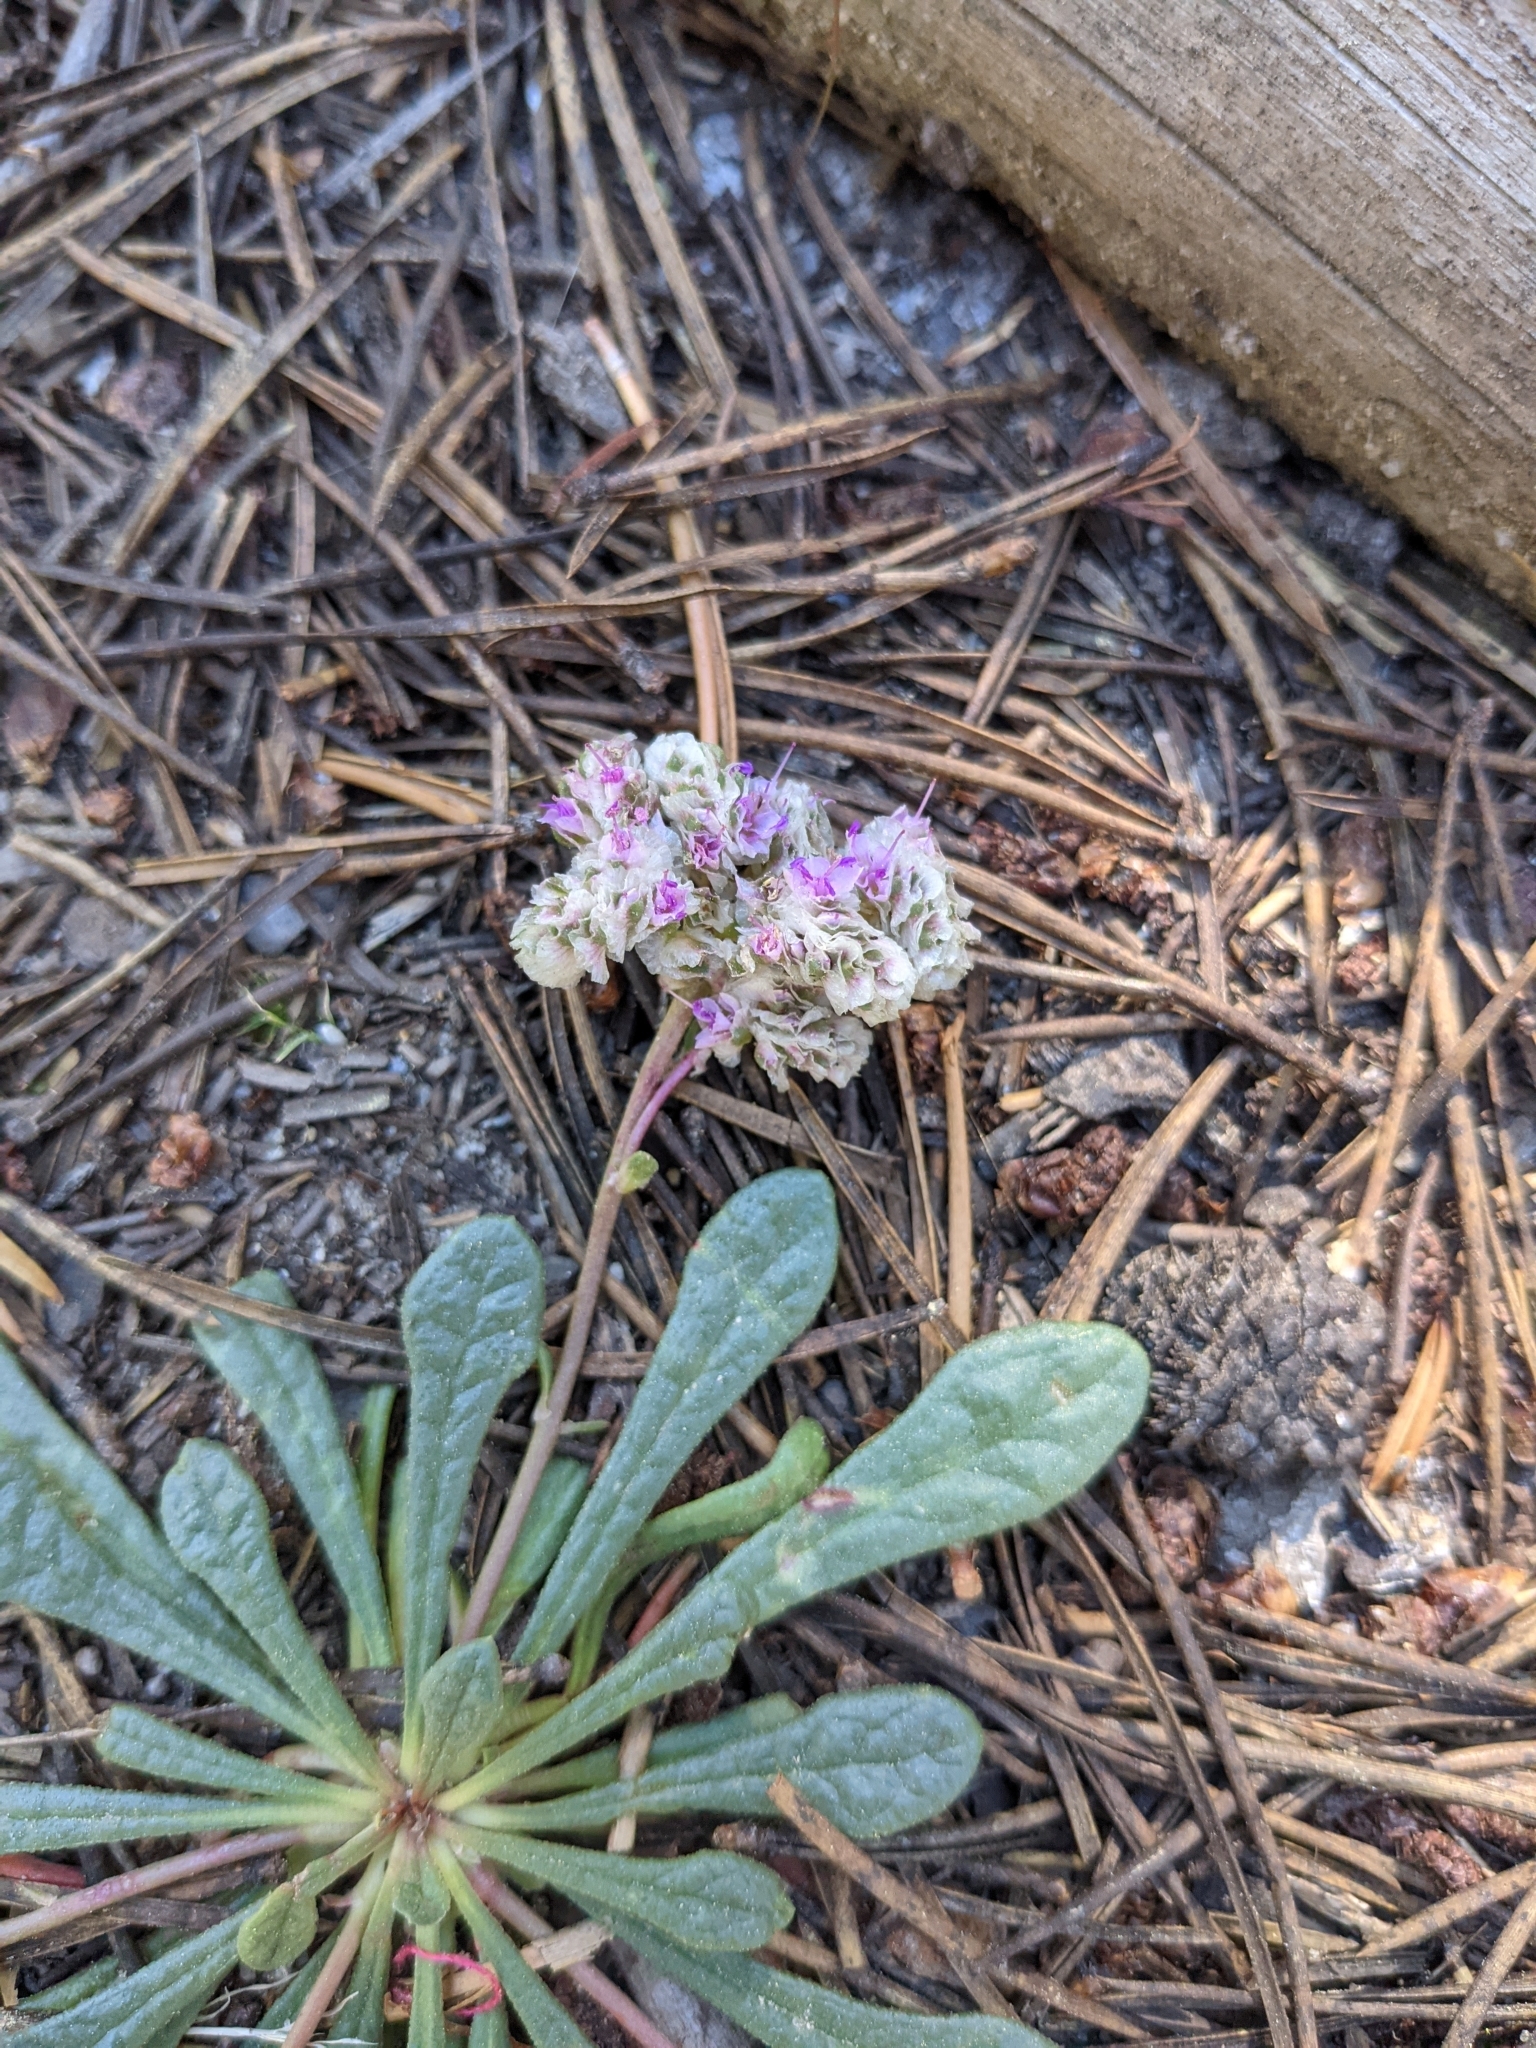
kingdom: Plantae
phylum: Tracheophyta
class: Magnoliopsida
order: Caryophyllales
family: Montiaceae
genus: Calyptridium
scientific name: Calyptridium monospermum
